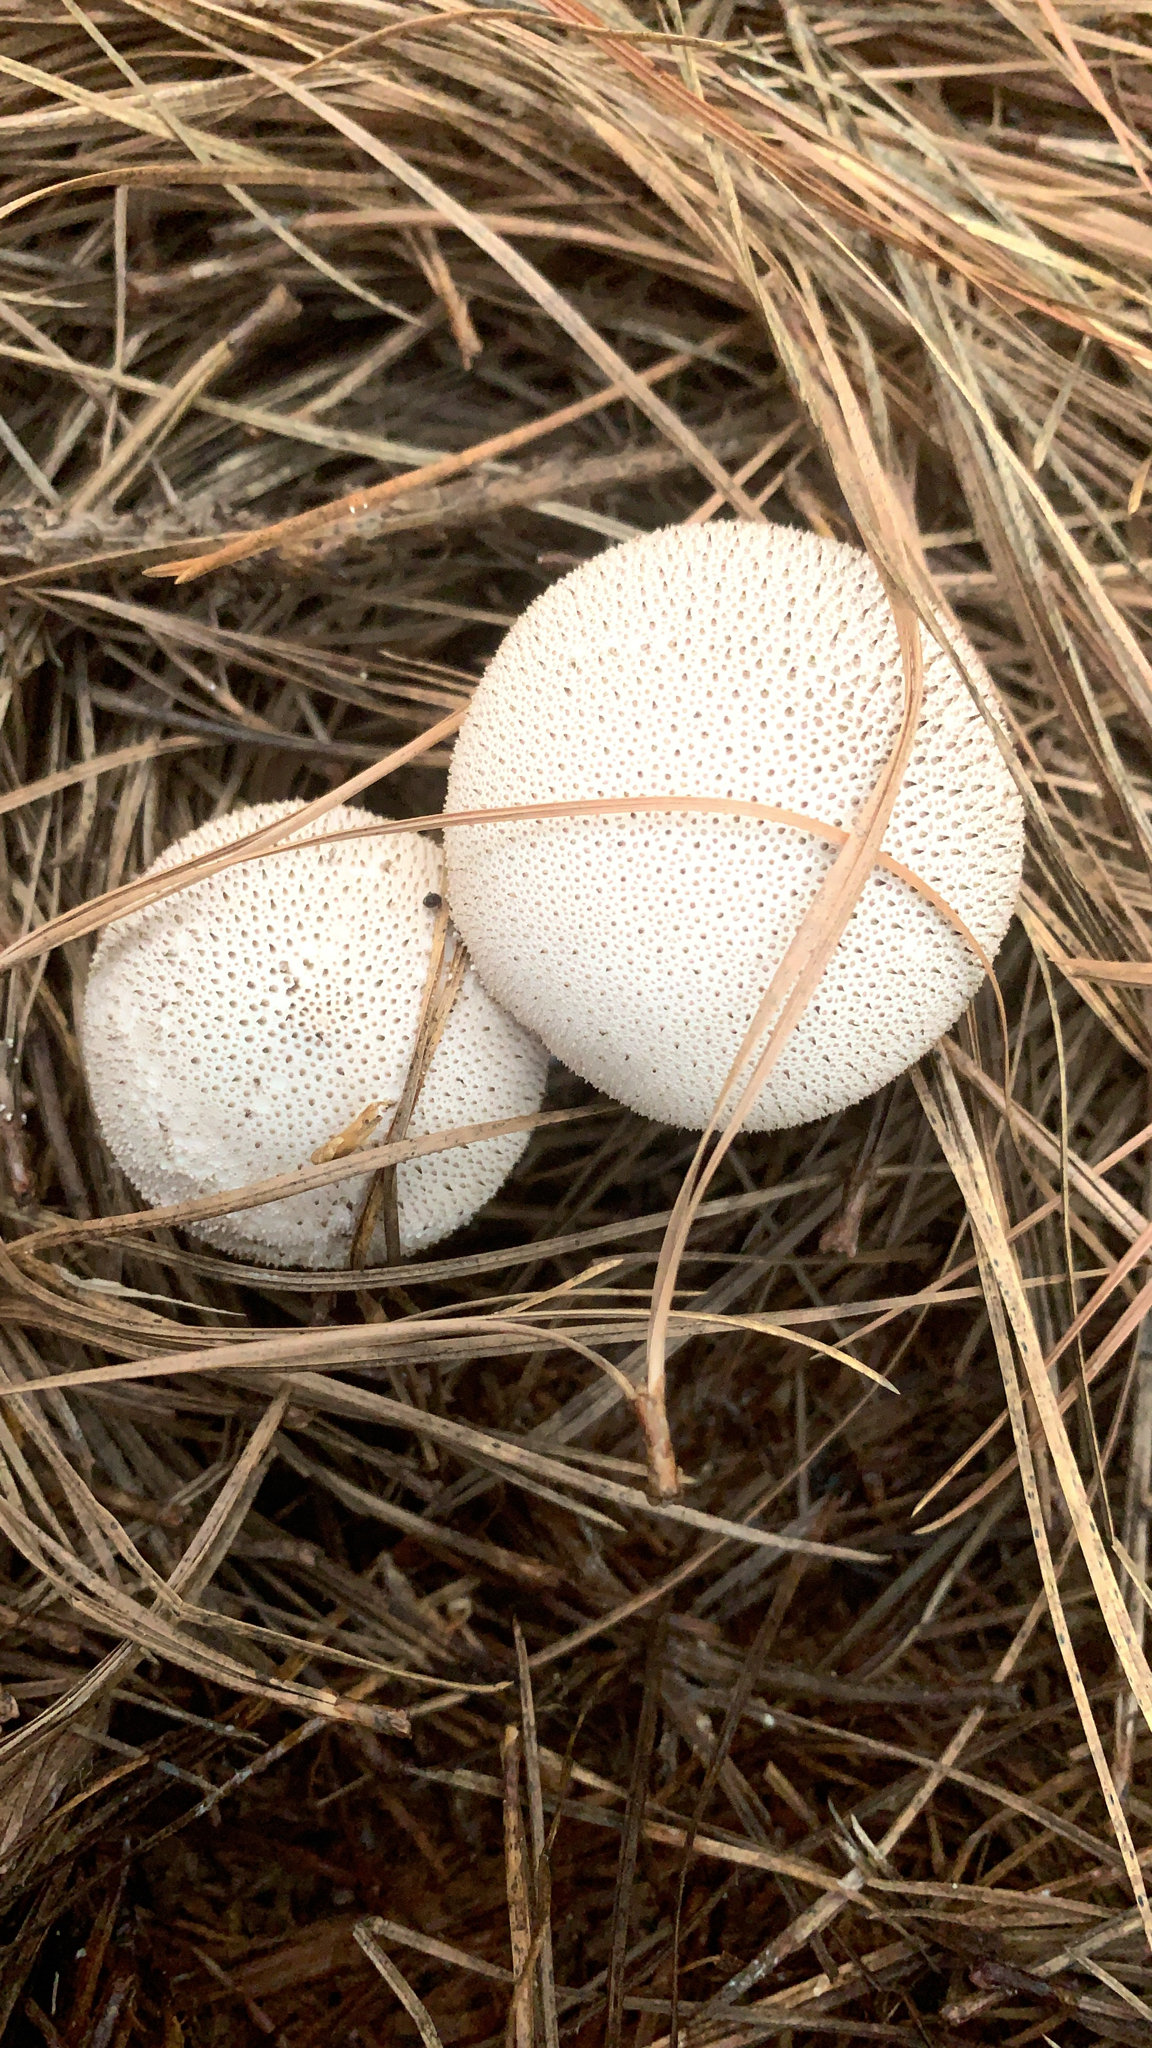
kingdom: Fungi
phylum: Basidiomycota
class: Agaricomycetes
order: Agaricales
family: Lycoperdaceae
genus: Lycoperdon
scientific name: Lycoperdon perlatum
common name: Common puffball
